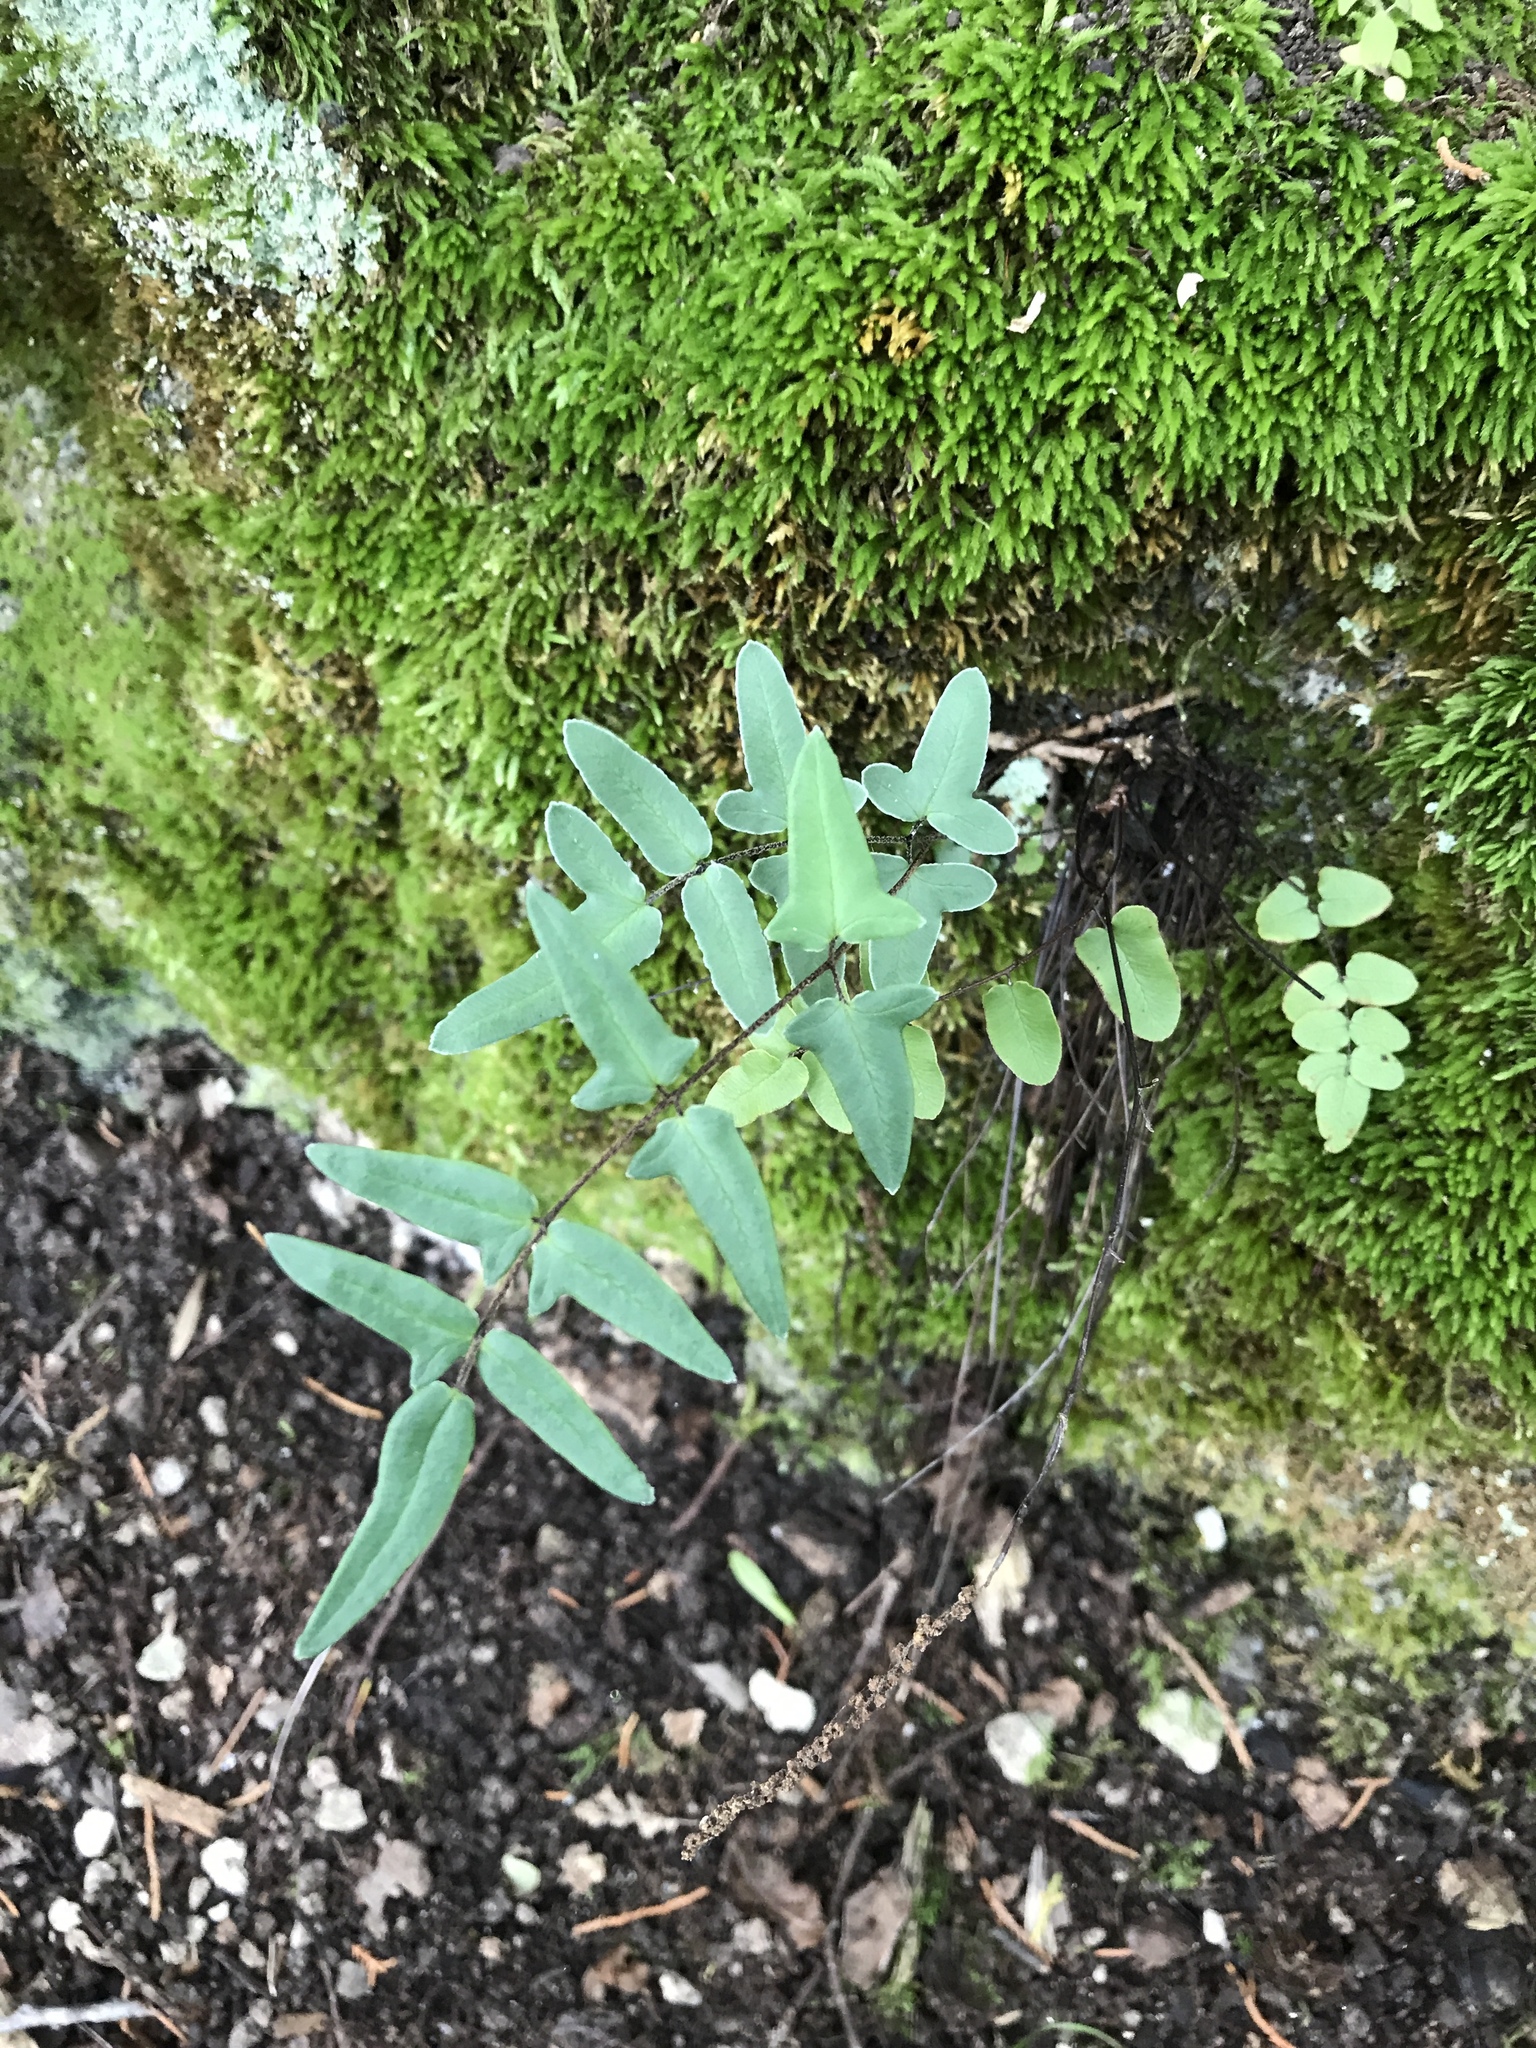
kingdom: Plantae
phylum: Tracheophyta
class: Polypodiopsida
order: Polypodiales
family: Pteridaceae
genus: Pellaea
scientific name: Pellaea atropurpurea
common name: Hairy cliffbrake
